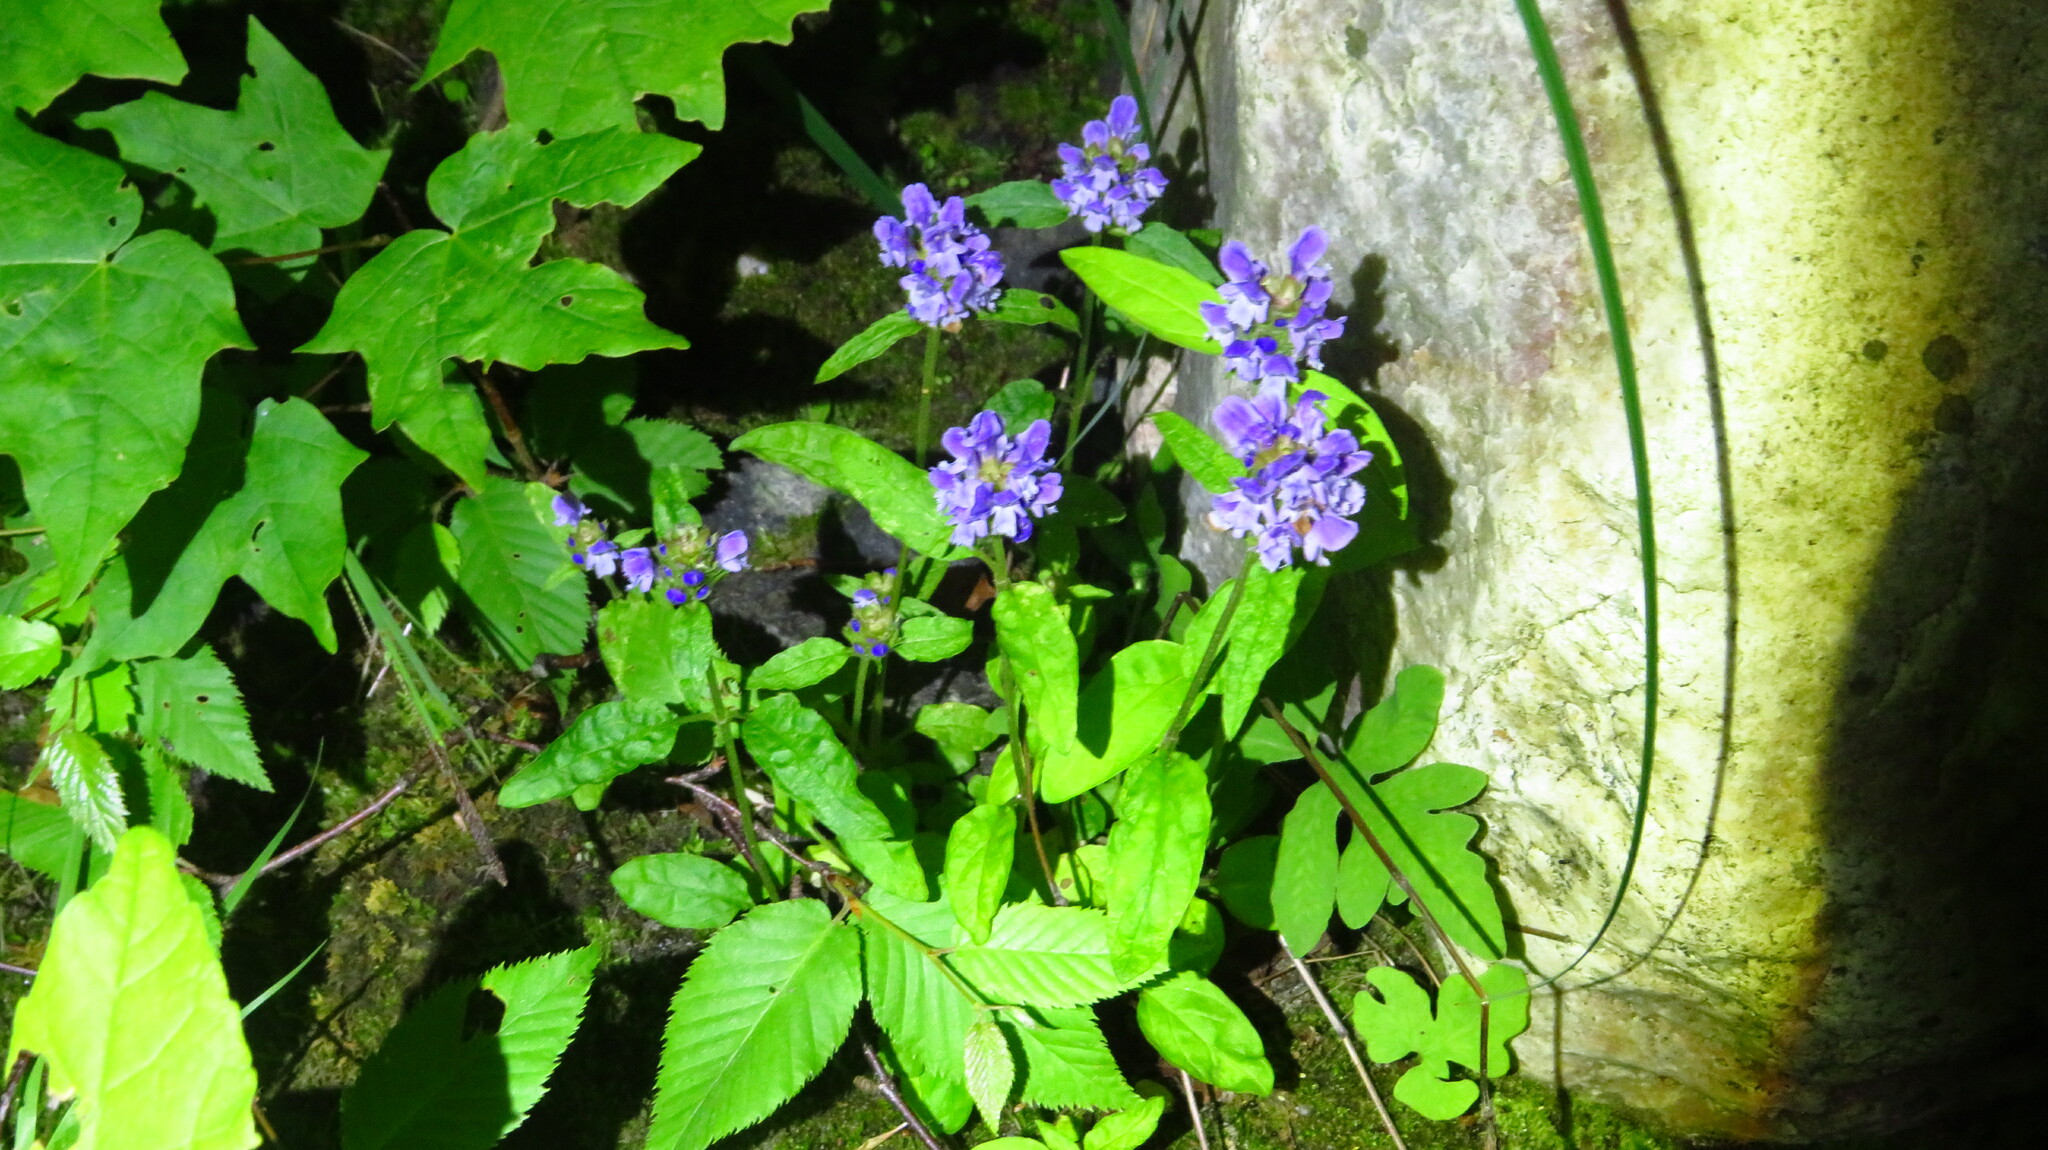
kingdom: Plantae
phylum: Tracheophyta
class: Magnoliopsida
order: Lamiales
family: Lamiaceae
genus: Prunella
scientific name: Prunella vulgaris
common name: Heal-all
